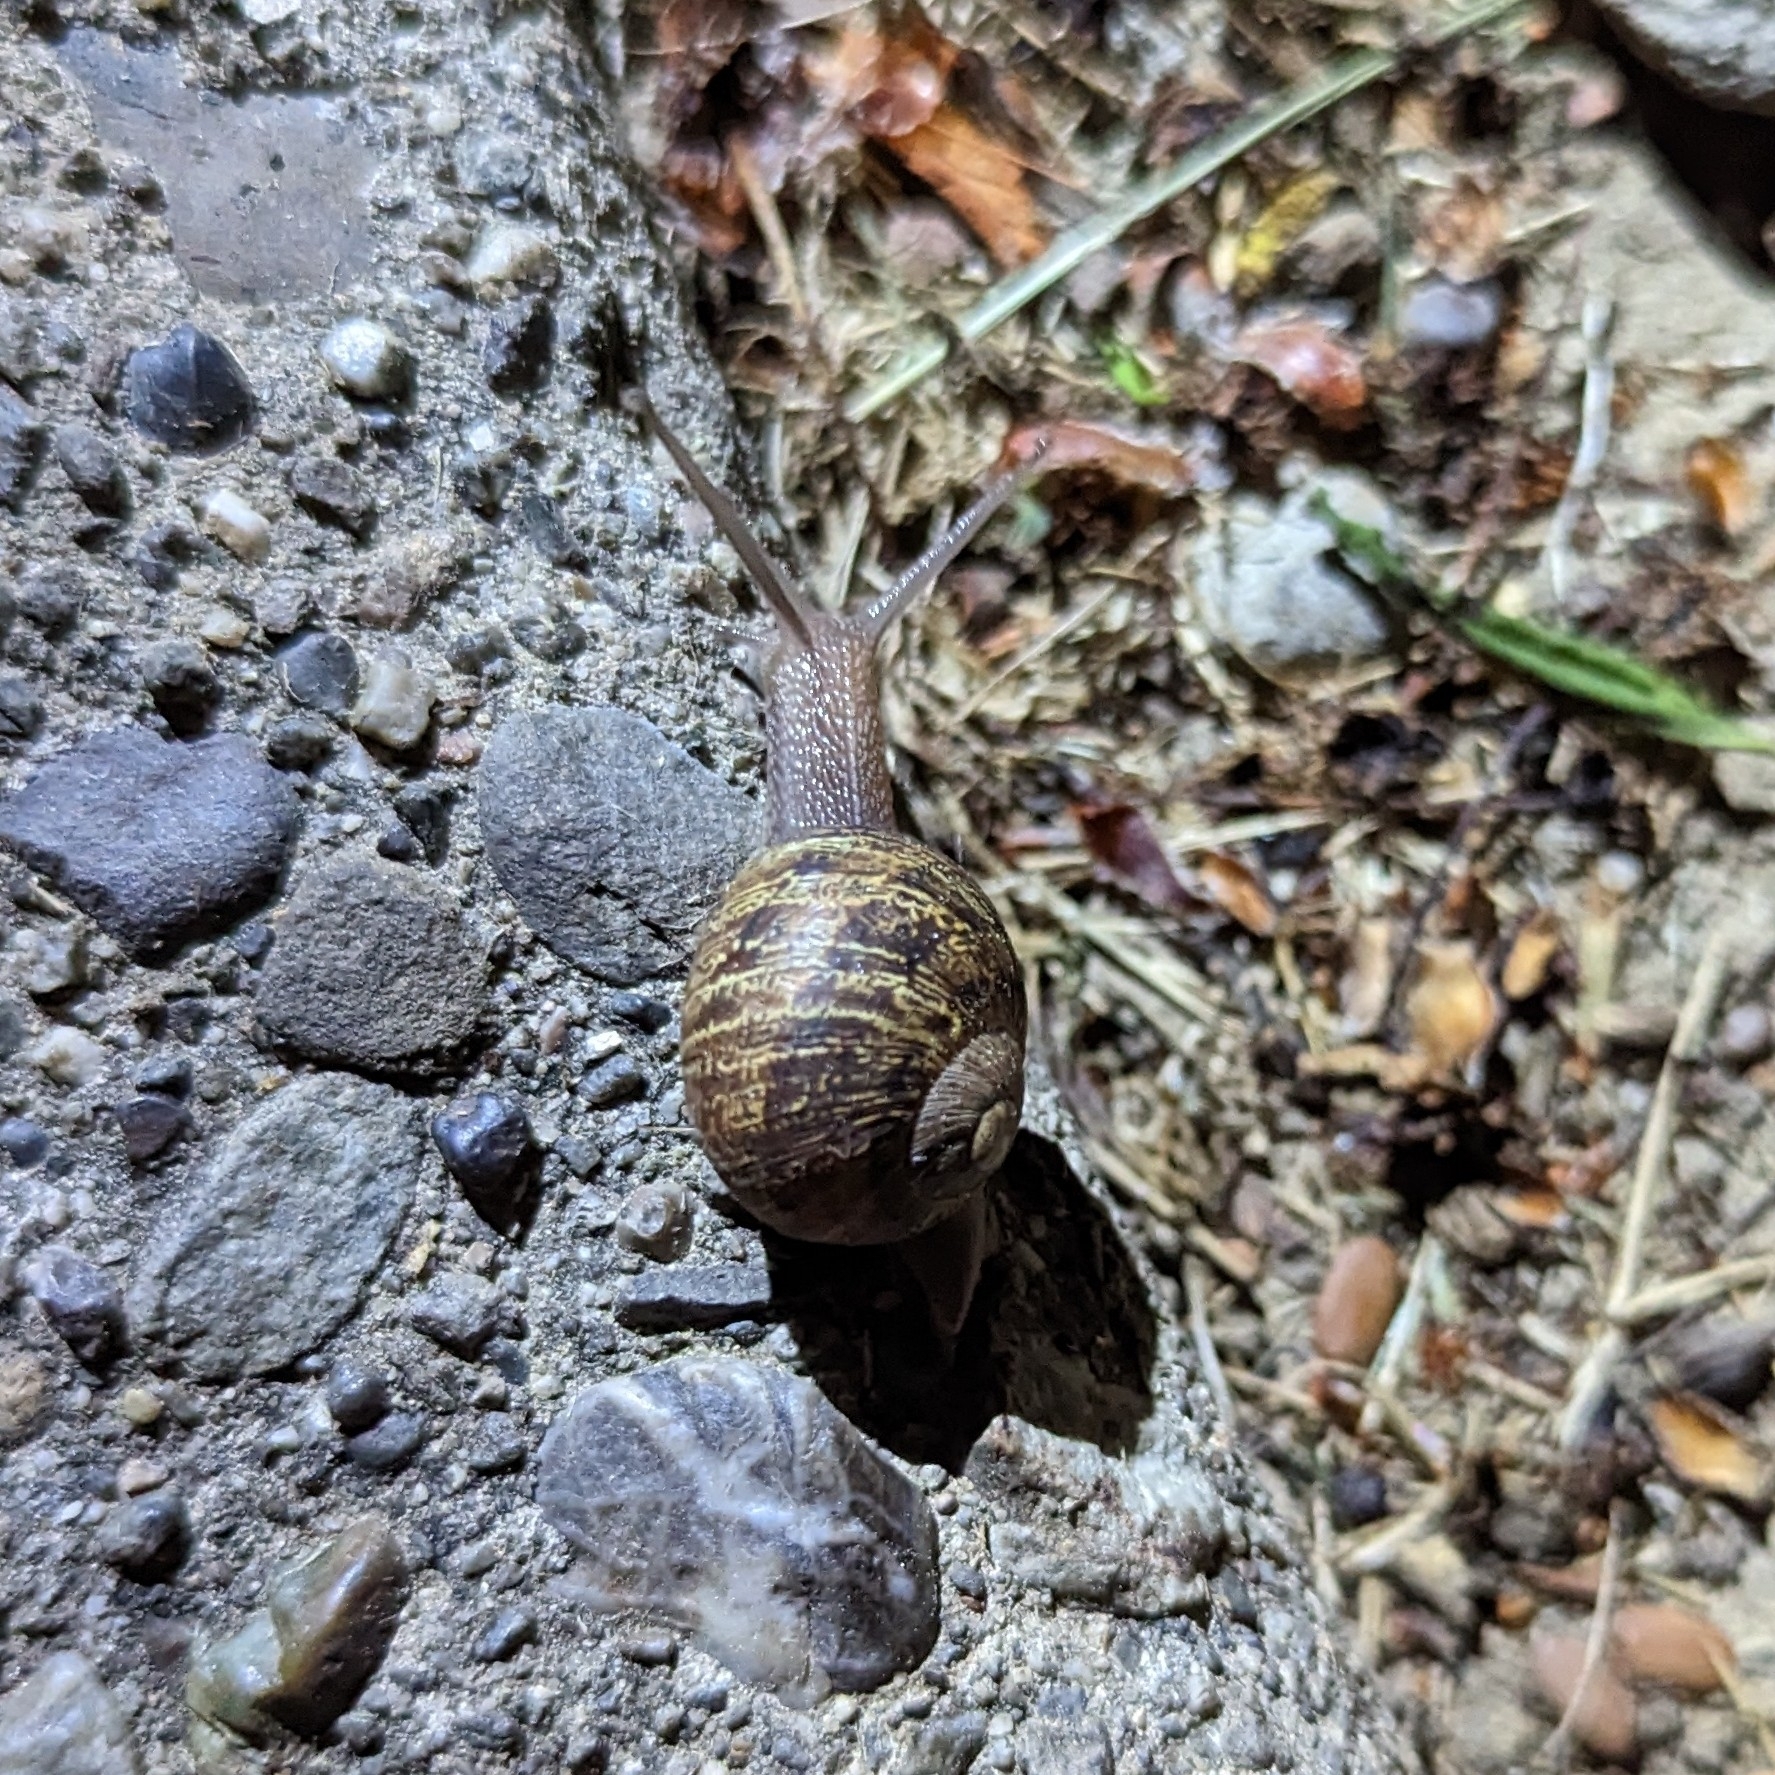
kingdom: Animalia
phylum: Mollusca
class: Gastropoda
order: Stylommatophora
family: Helicidae
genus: Cornu
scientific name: Cornu aspersum
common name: Brown garden snail
